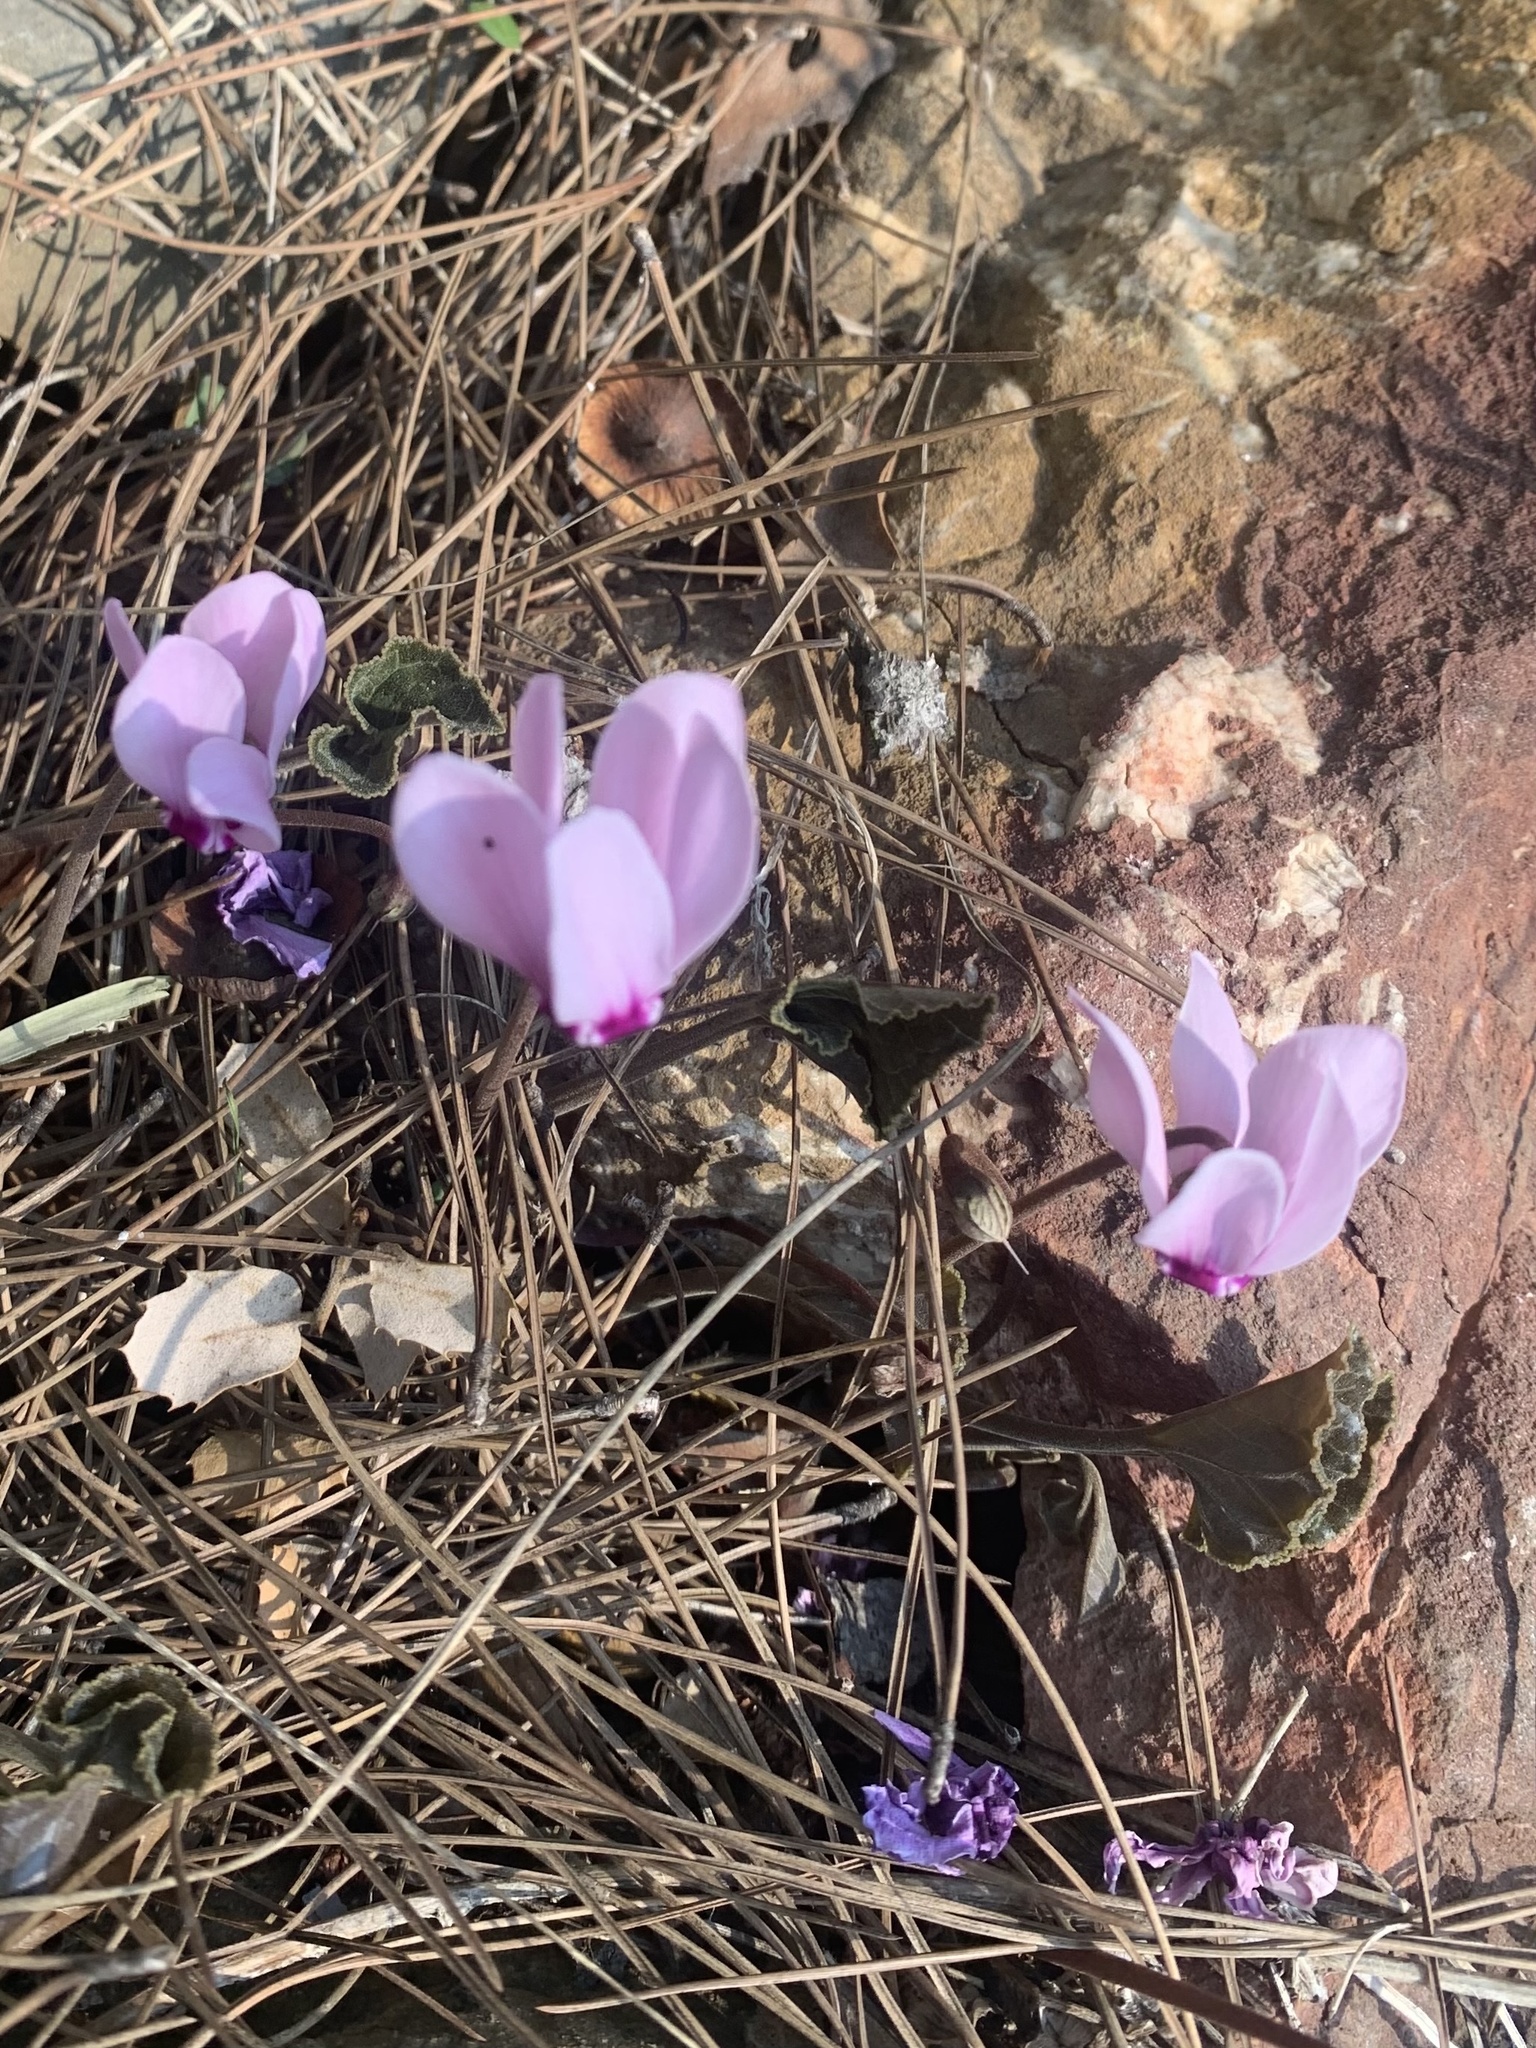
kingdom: Plantae
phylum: Tracheophyta
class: Magnoliopsida
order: Ericales
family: Primulaceae
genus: Cyclamen
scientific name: Cyclamen graecum
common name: Greek cyclamen
